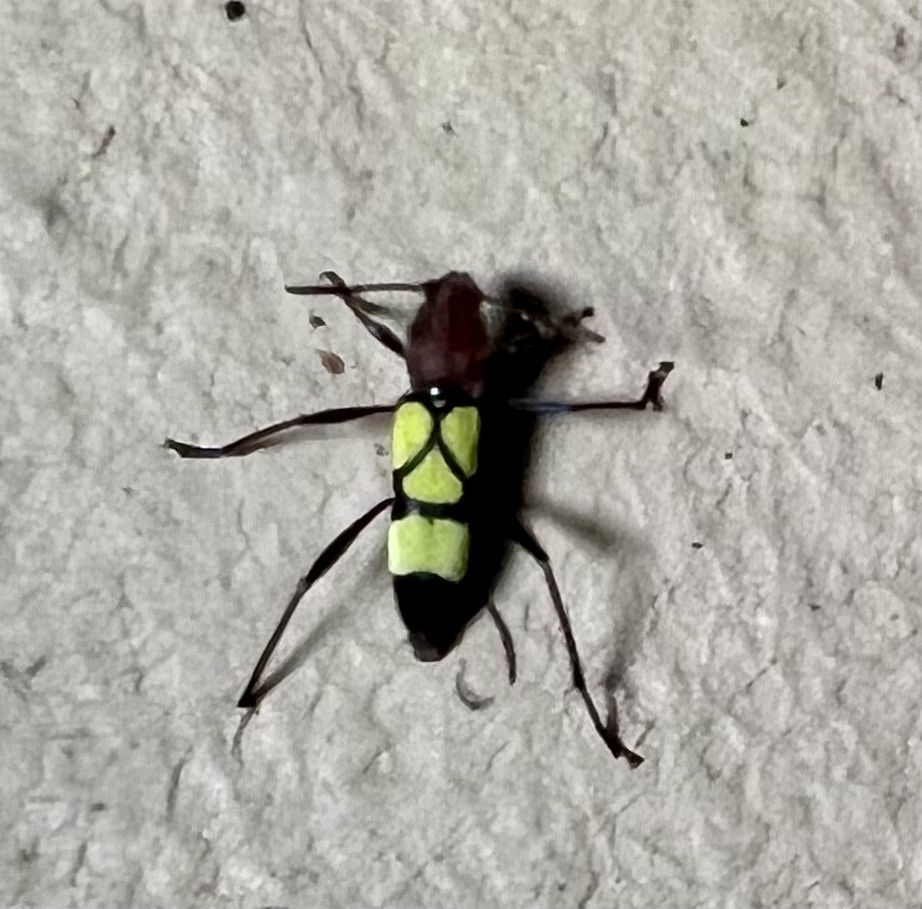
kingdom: Animalia
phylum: Arthropoda
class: Insecta
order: Coleoptera
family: Cerambycidae
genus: Pirangoclytus
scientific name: Pirangoclytus amaryllis
